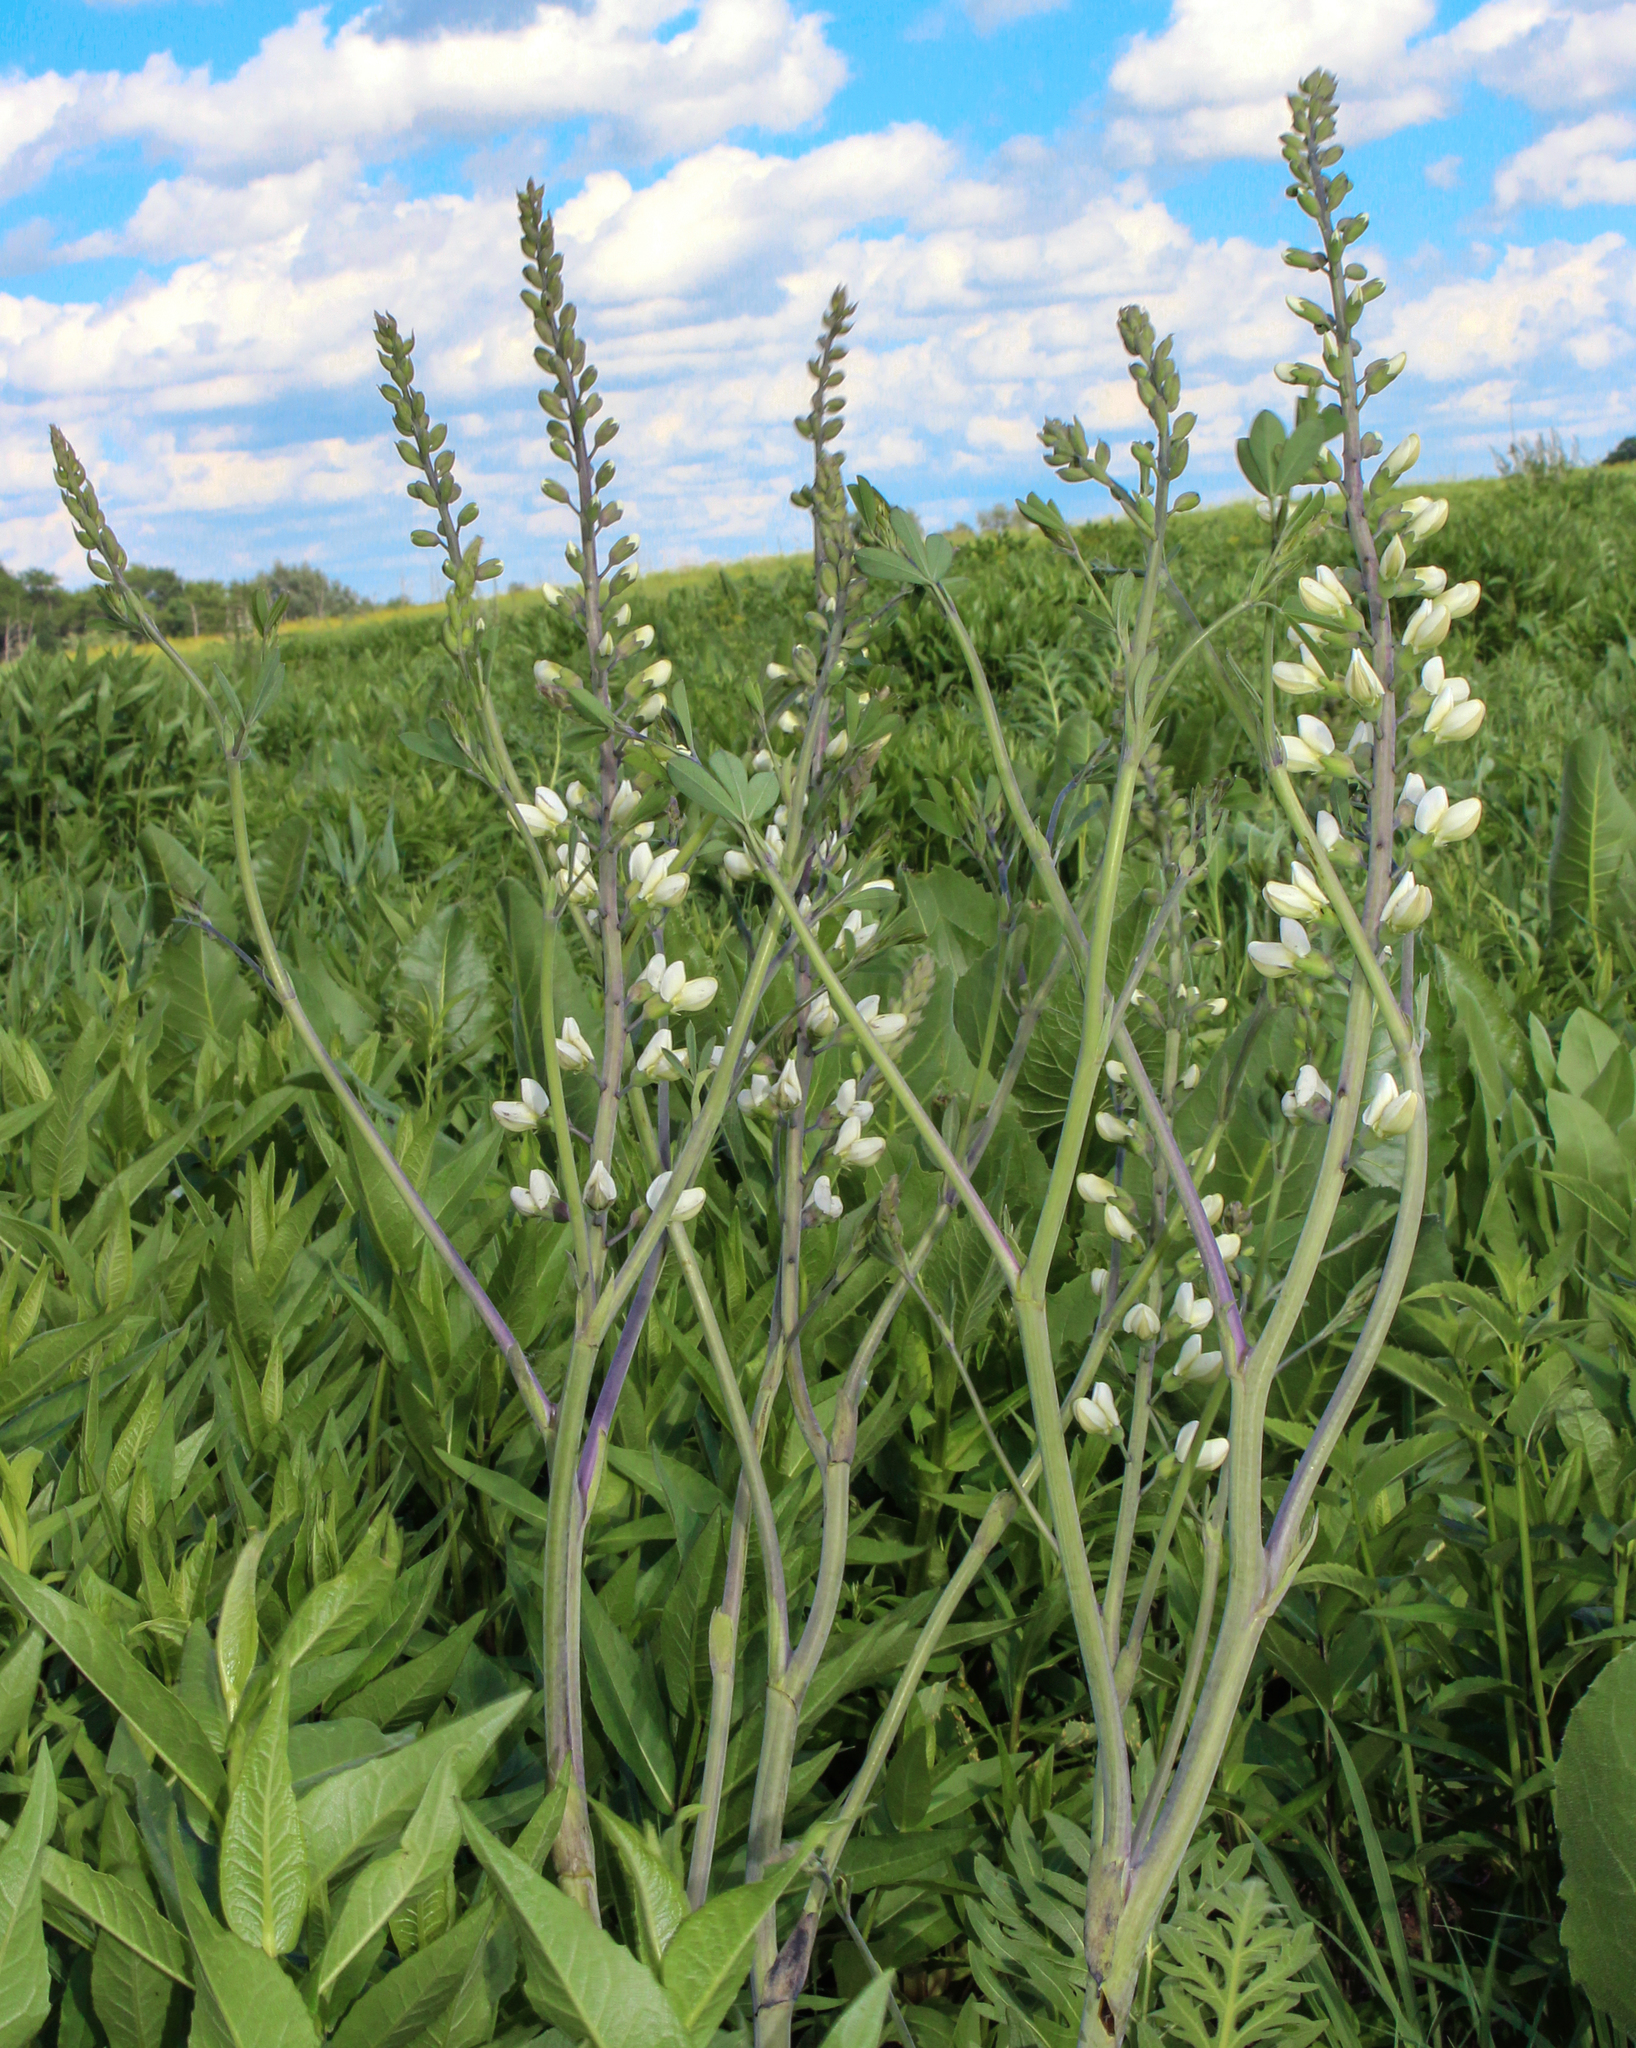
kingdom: Plantae
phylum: Tracheophyta
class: Magnoliopsida
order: Fabales
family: Fabaceae
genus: Baptisia
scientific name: Baptisia alba
